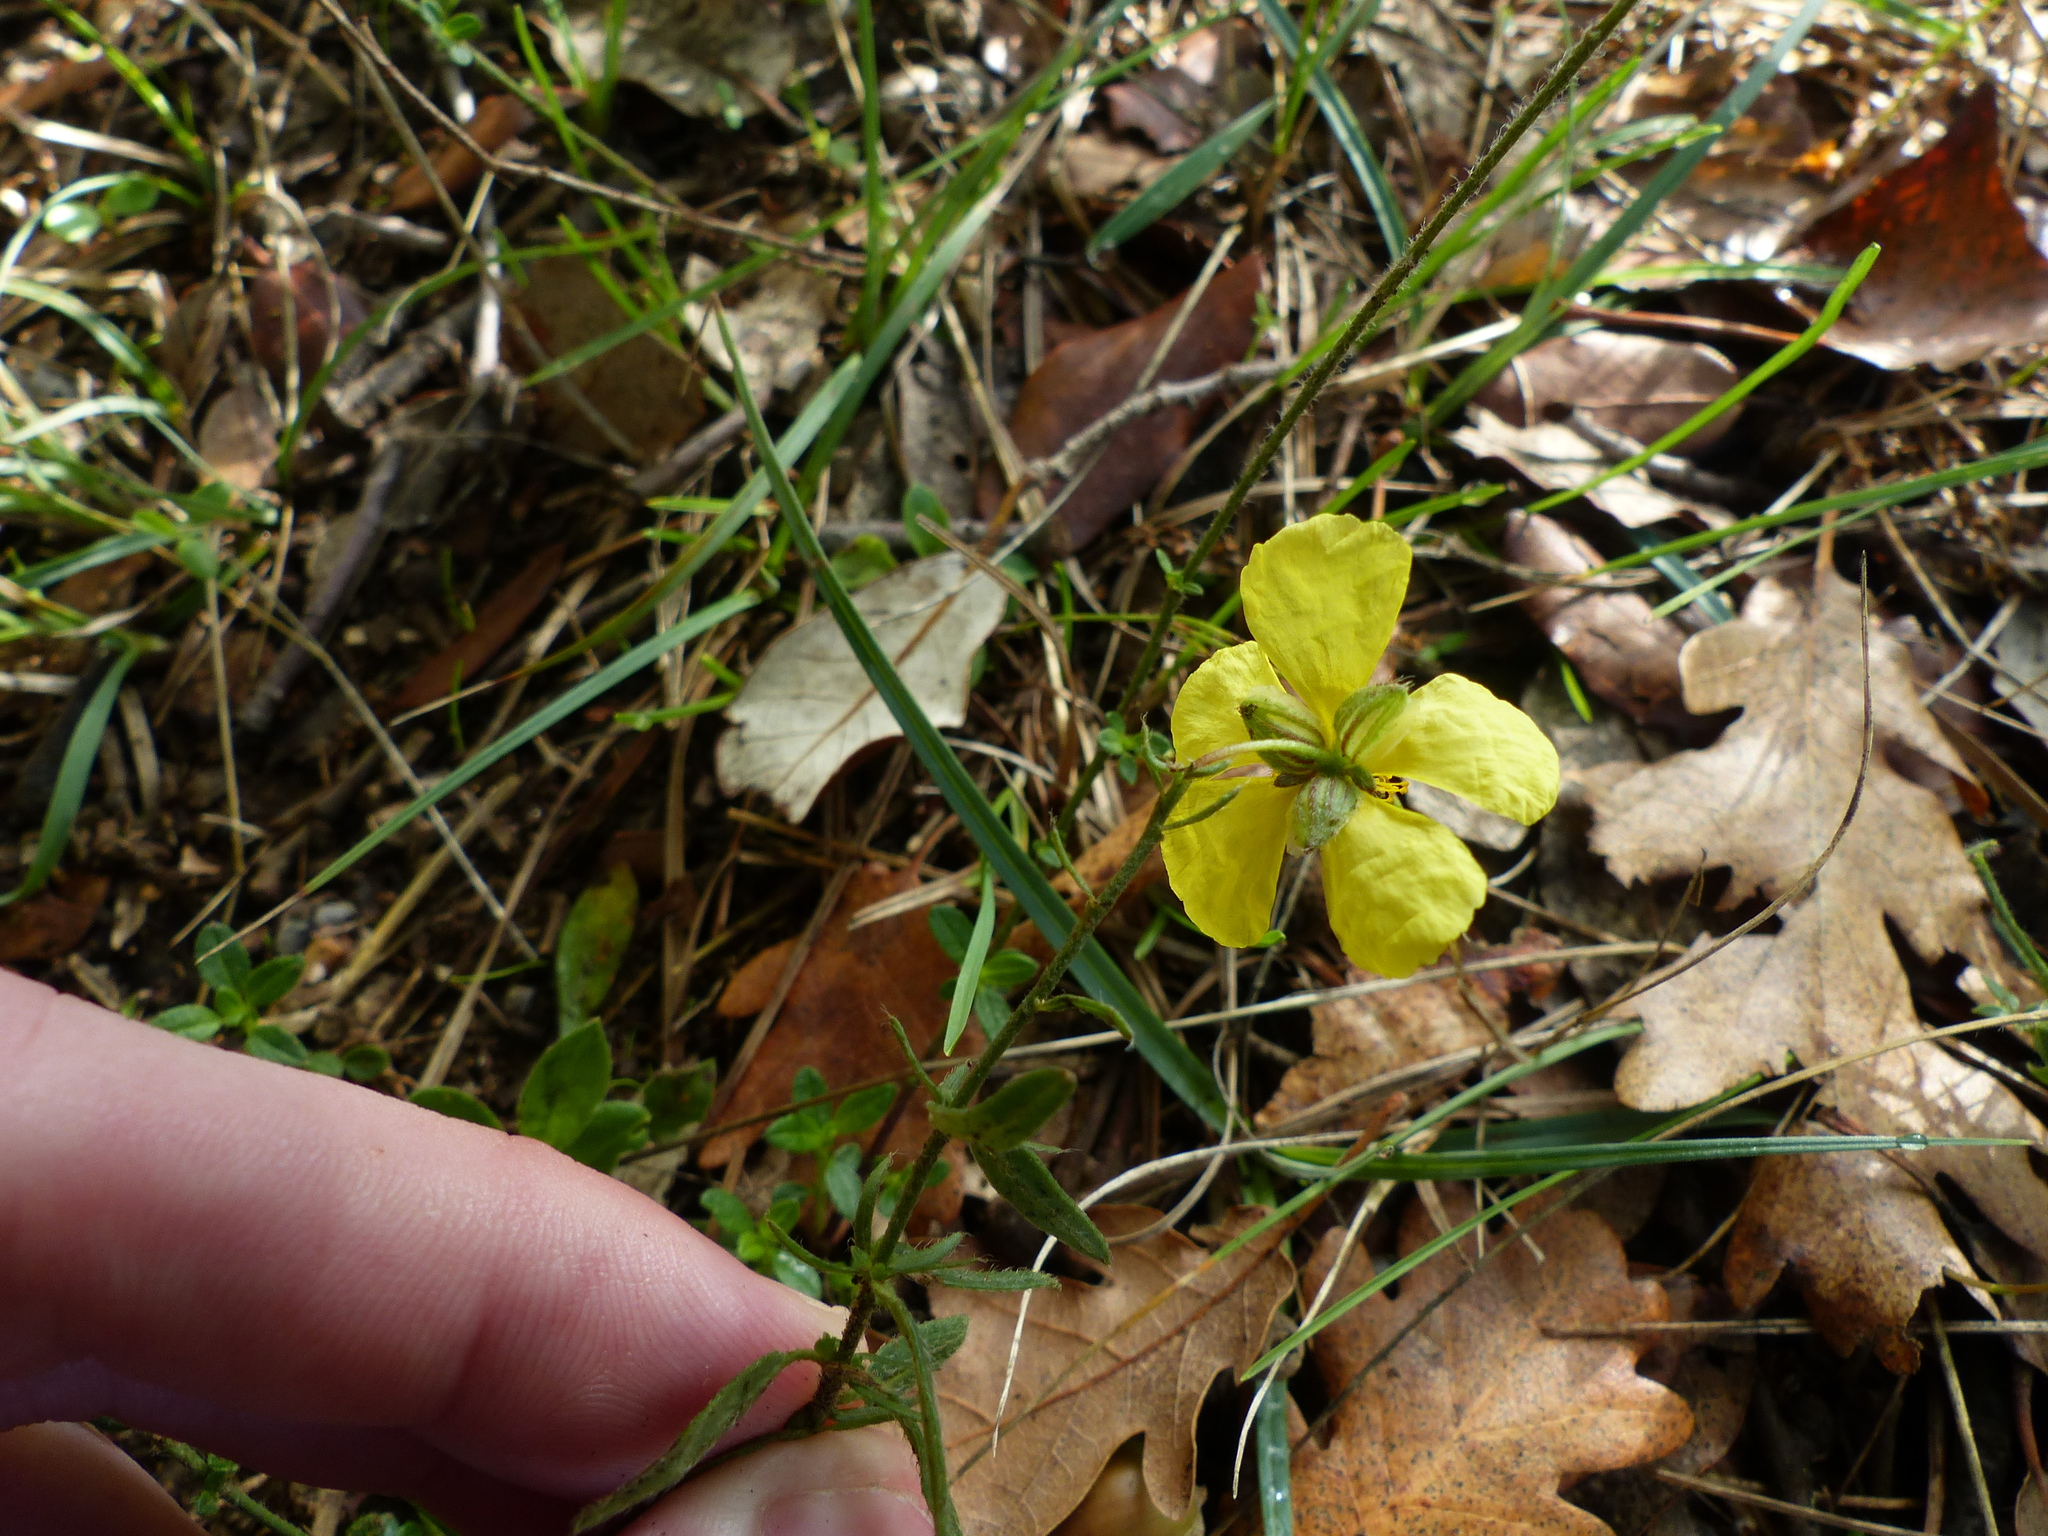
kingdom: Plantae
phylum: Tracheophyta
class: Magnoliopsida
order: Malvales
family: Cistaceae
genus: Helianthemum
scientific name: Helianthemum nummularium
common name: Common rock-rose
